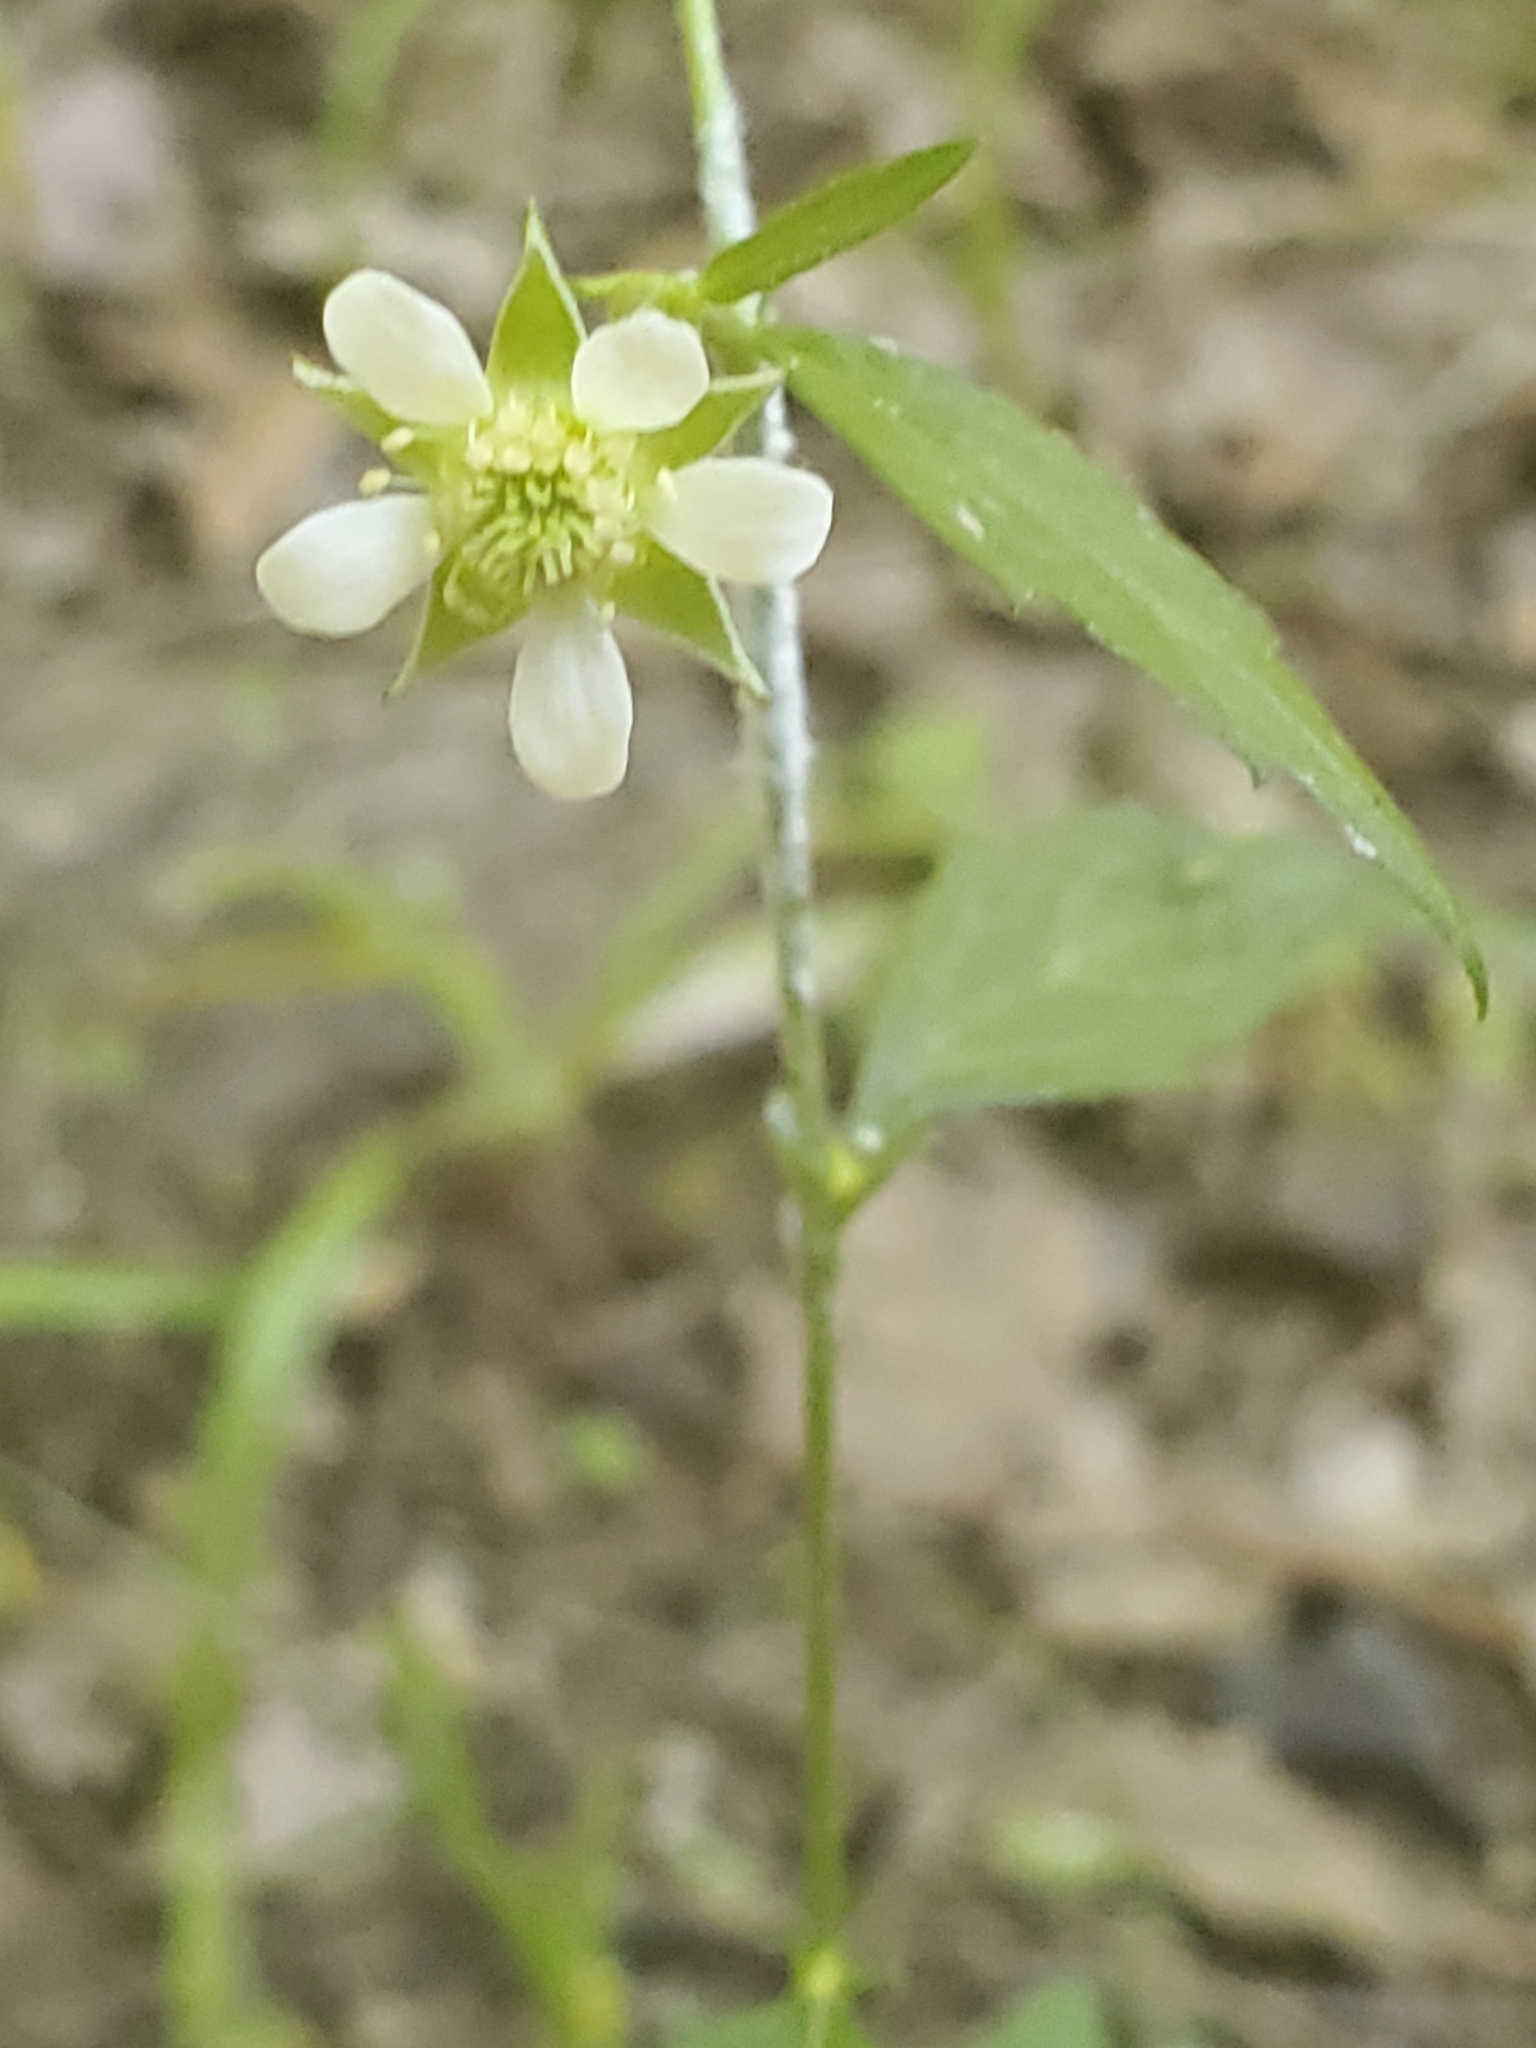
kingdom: Plantae
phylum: Tracheophyta
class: Magnoliopsida
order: Rosales
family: Rosaceae
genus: Geum
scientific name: Geum canadense
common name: White avens
